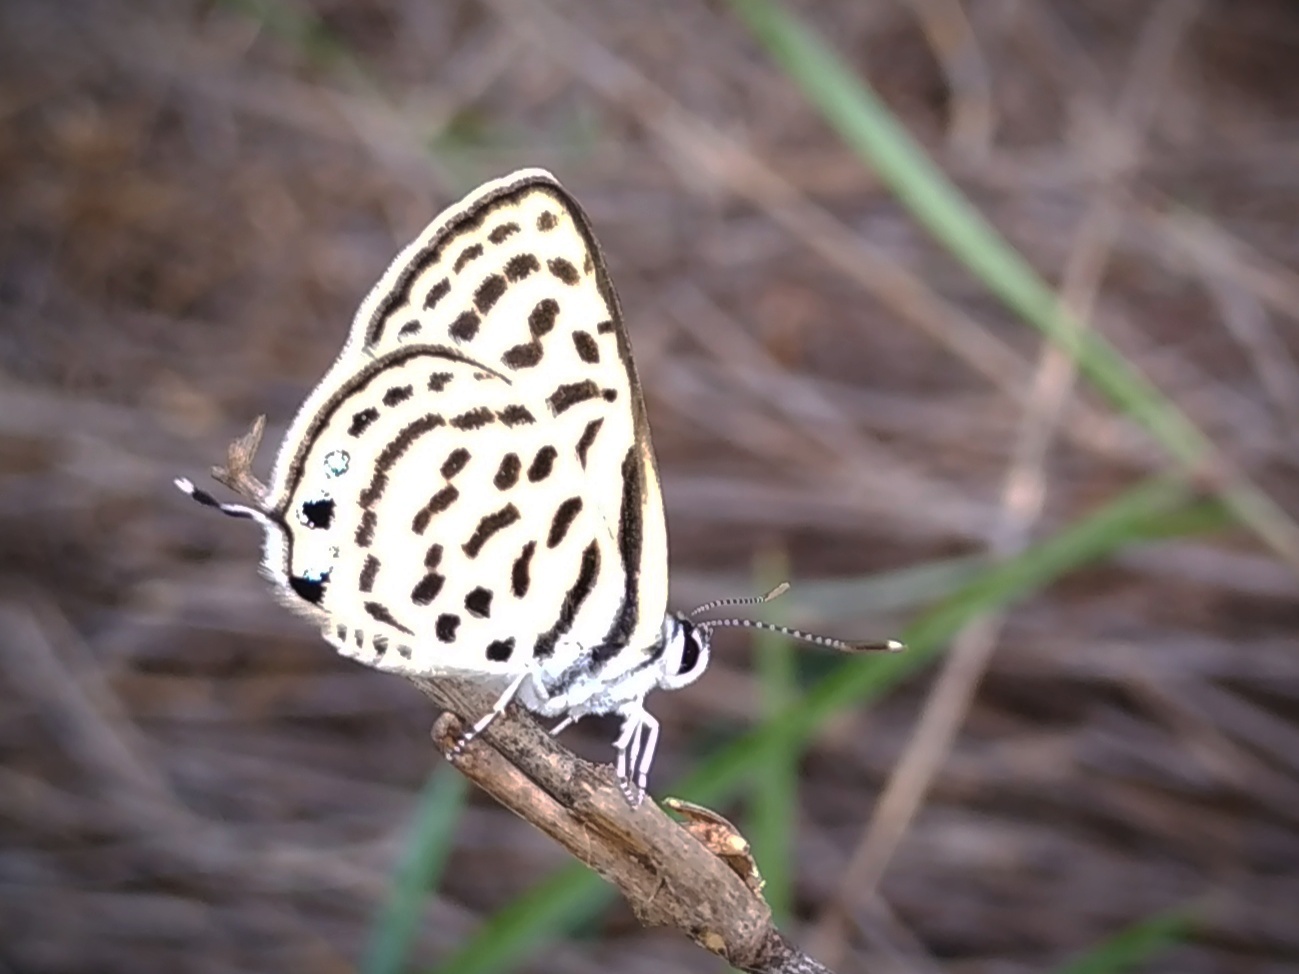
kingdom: Animalia
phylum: Arthropoda
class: Insecta
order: Lepidoptera
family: Lycaenidae
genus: Tarucus
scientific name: Tarucus nara
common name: Striped pierrot
